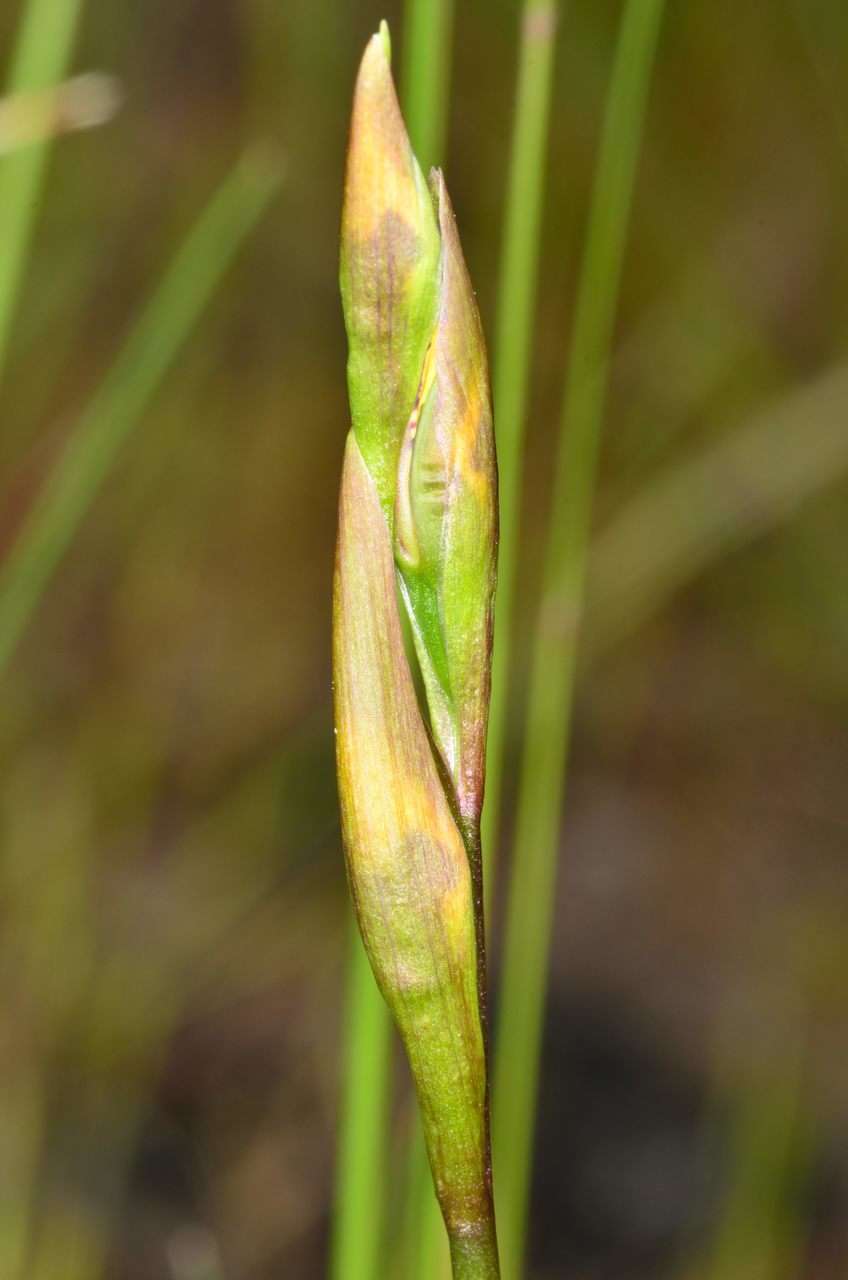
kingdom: Plantae
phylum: Tracheophyta
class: Liliopsida
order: Asparagales
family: Orchidaceae
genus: Diuris
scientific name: Diuris sulphurea
